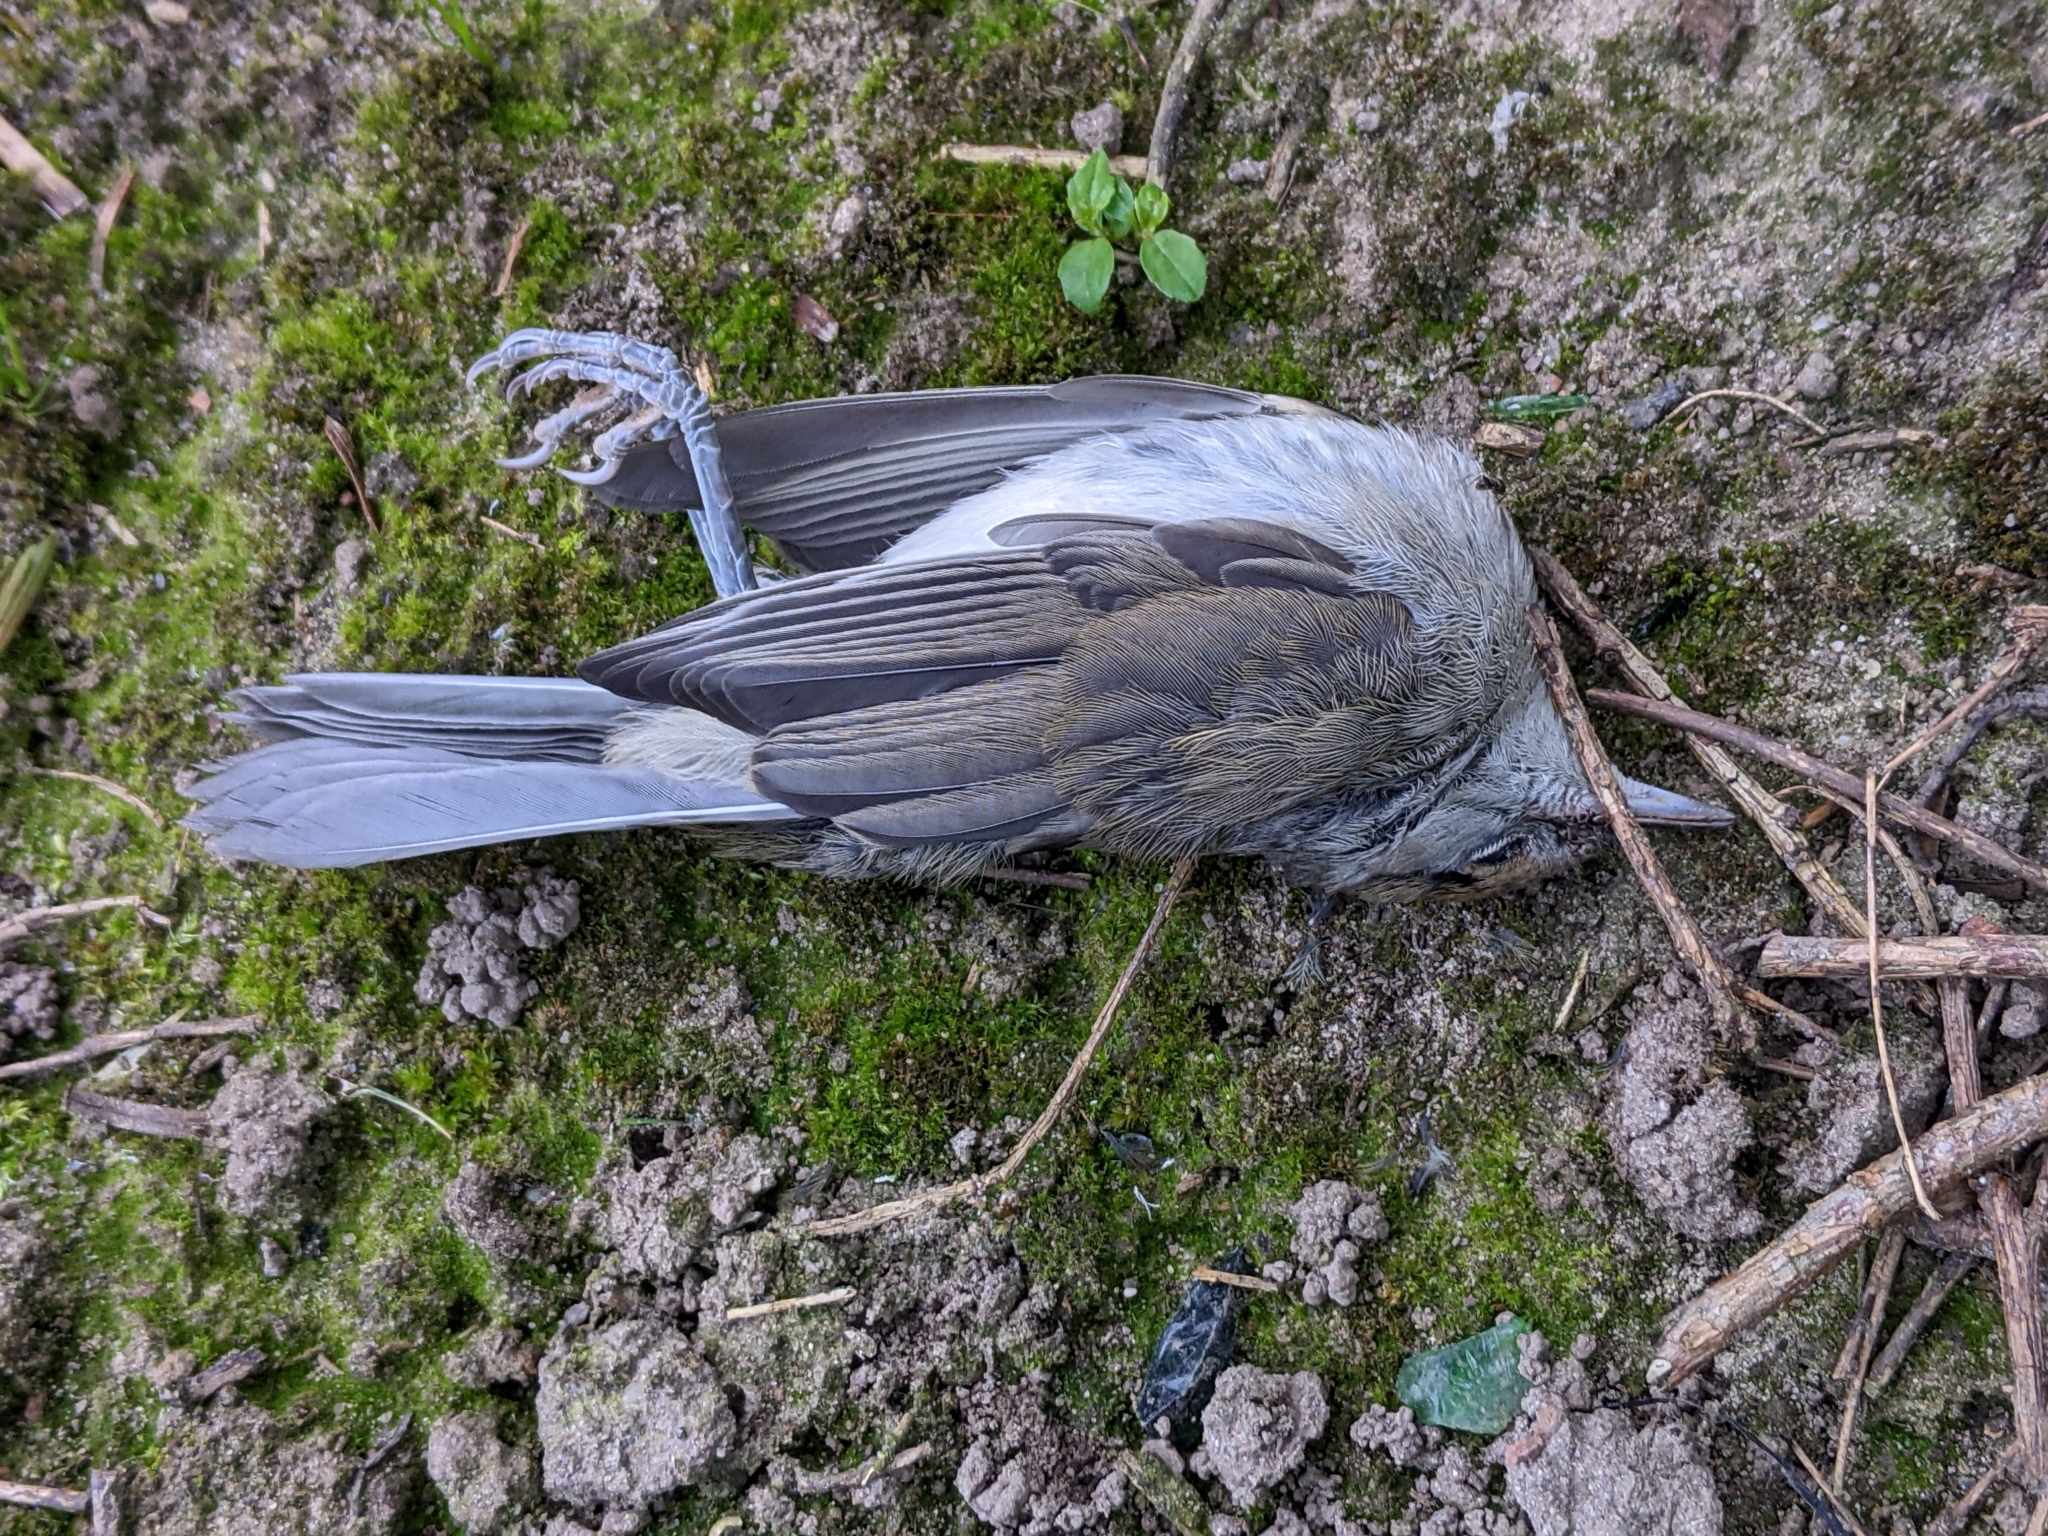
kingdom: Animalia
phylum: Chordata
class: Aves
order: Passeriformes
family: Sylviidae
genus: Sylvia
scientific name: Sylvia atricapilla
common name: Eurasian blackcap
